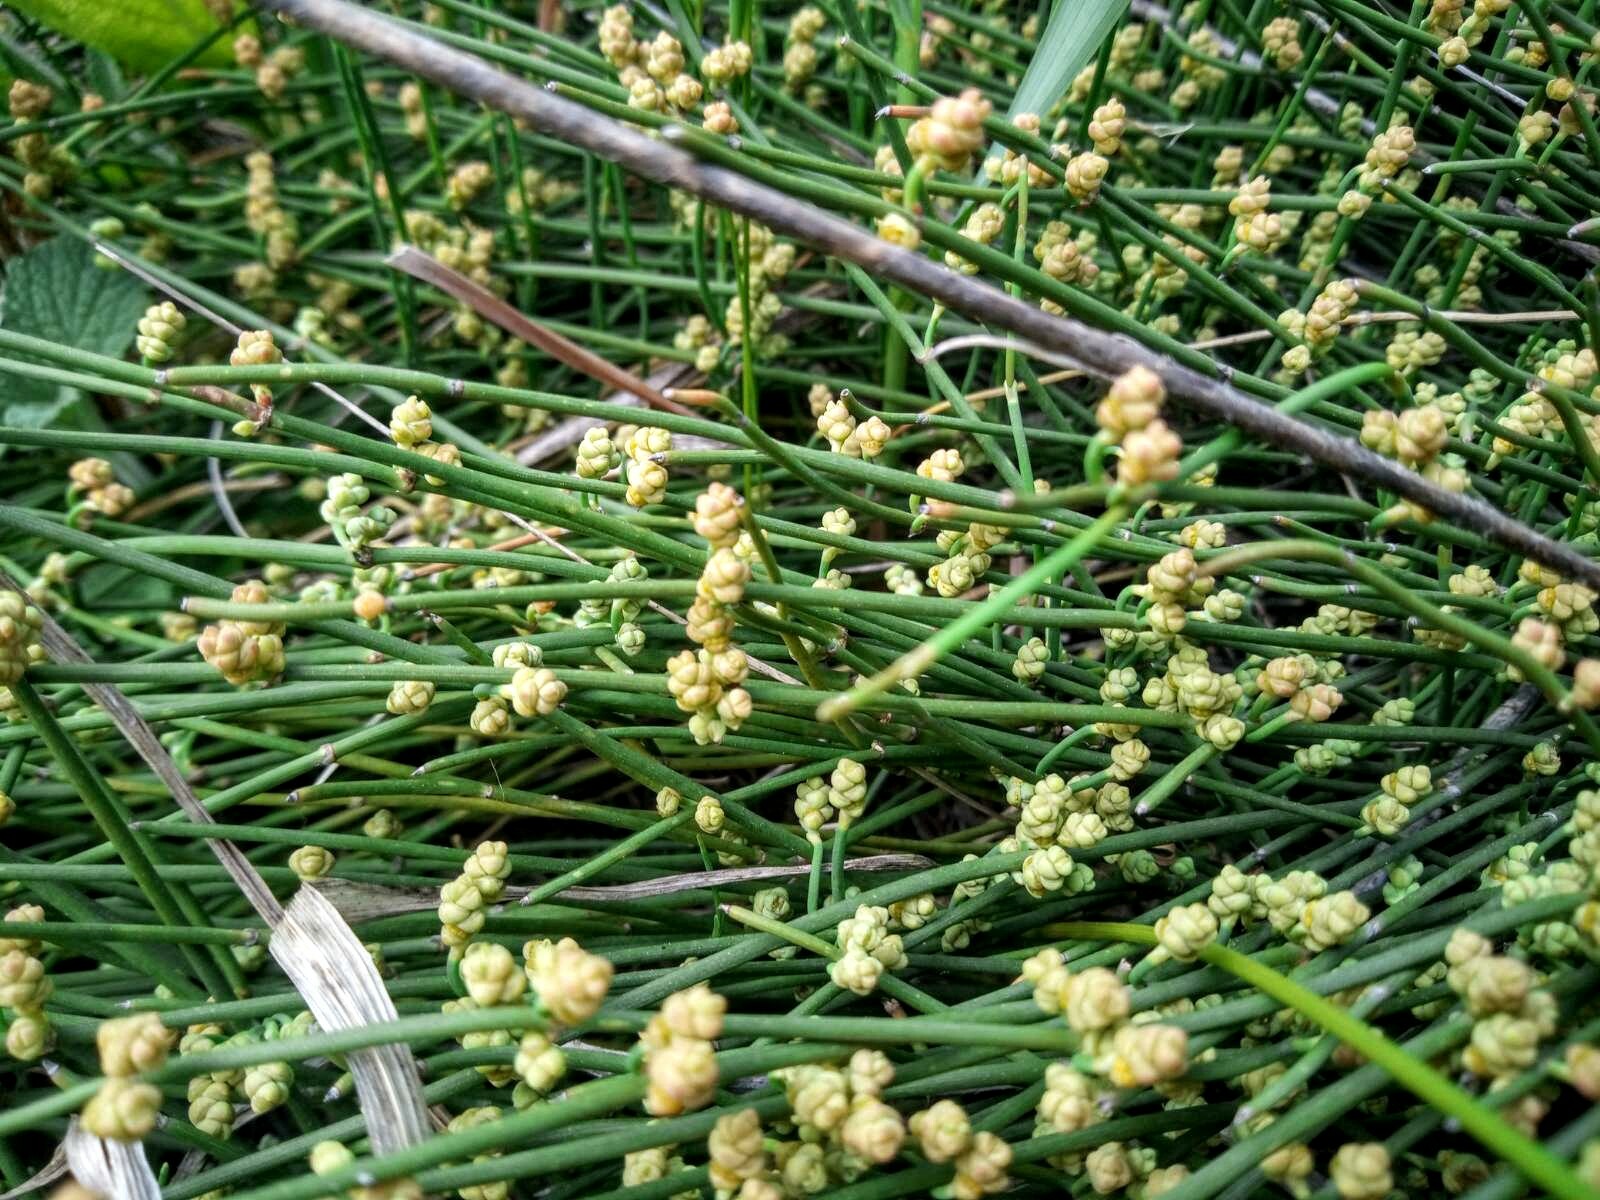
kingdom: Plantae
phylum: Tracheophyta
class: Gnetopsida
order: Ephedrales
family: Ephedraceae
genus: Ephedra
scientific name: Ephedra distachya
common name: Sea grape
